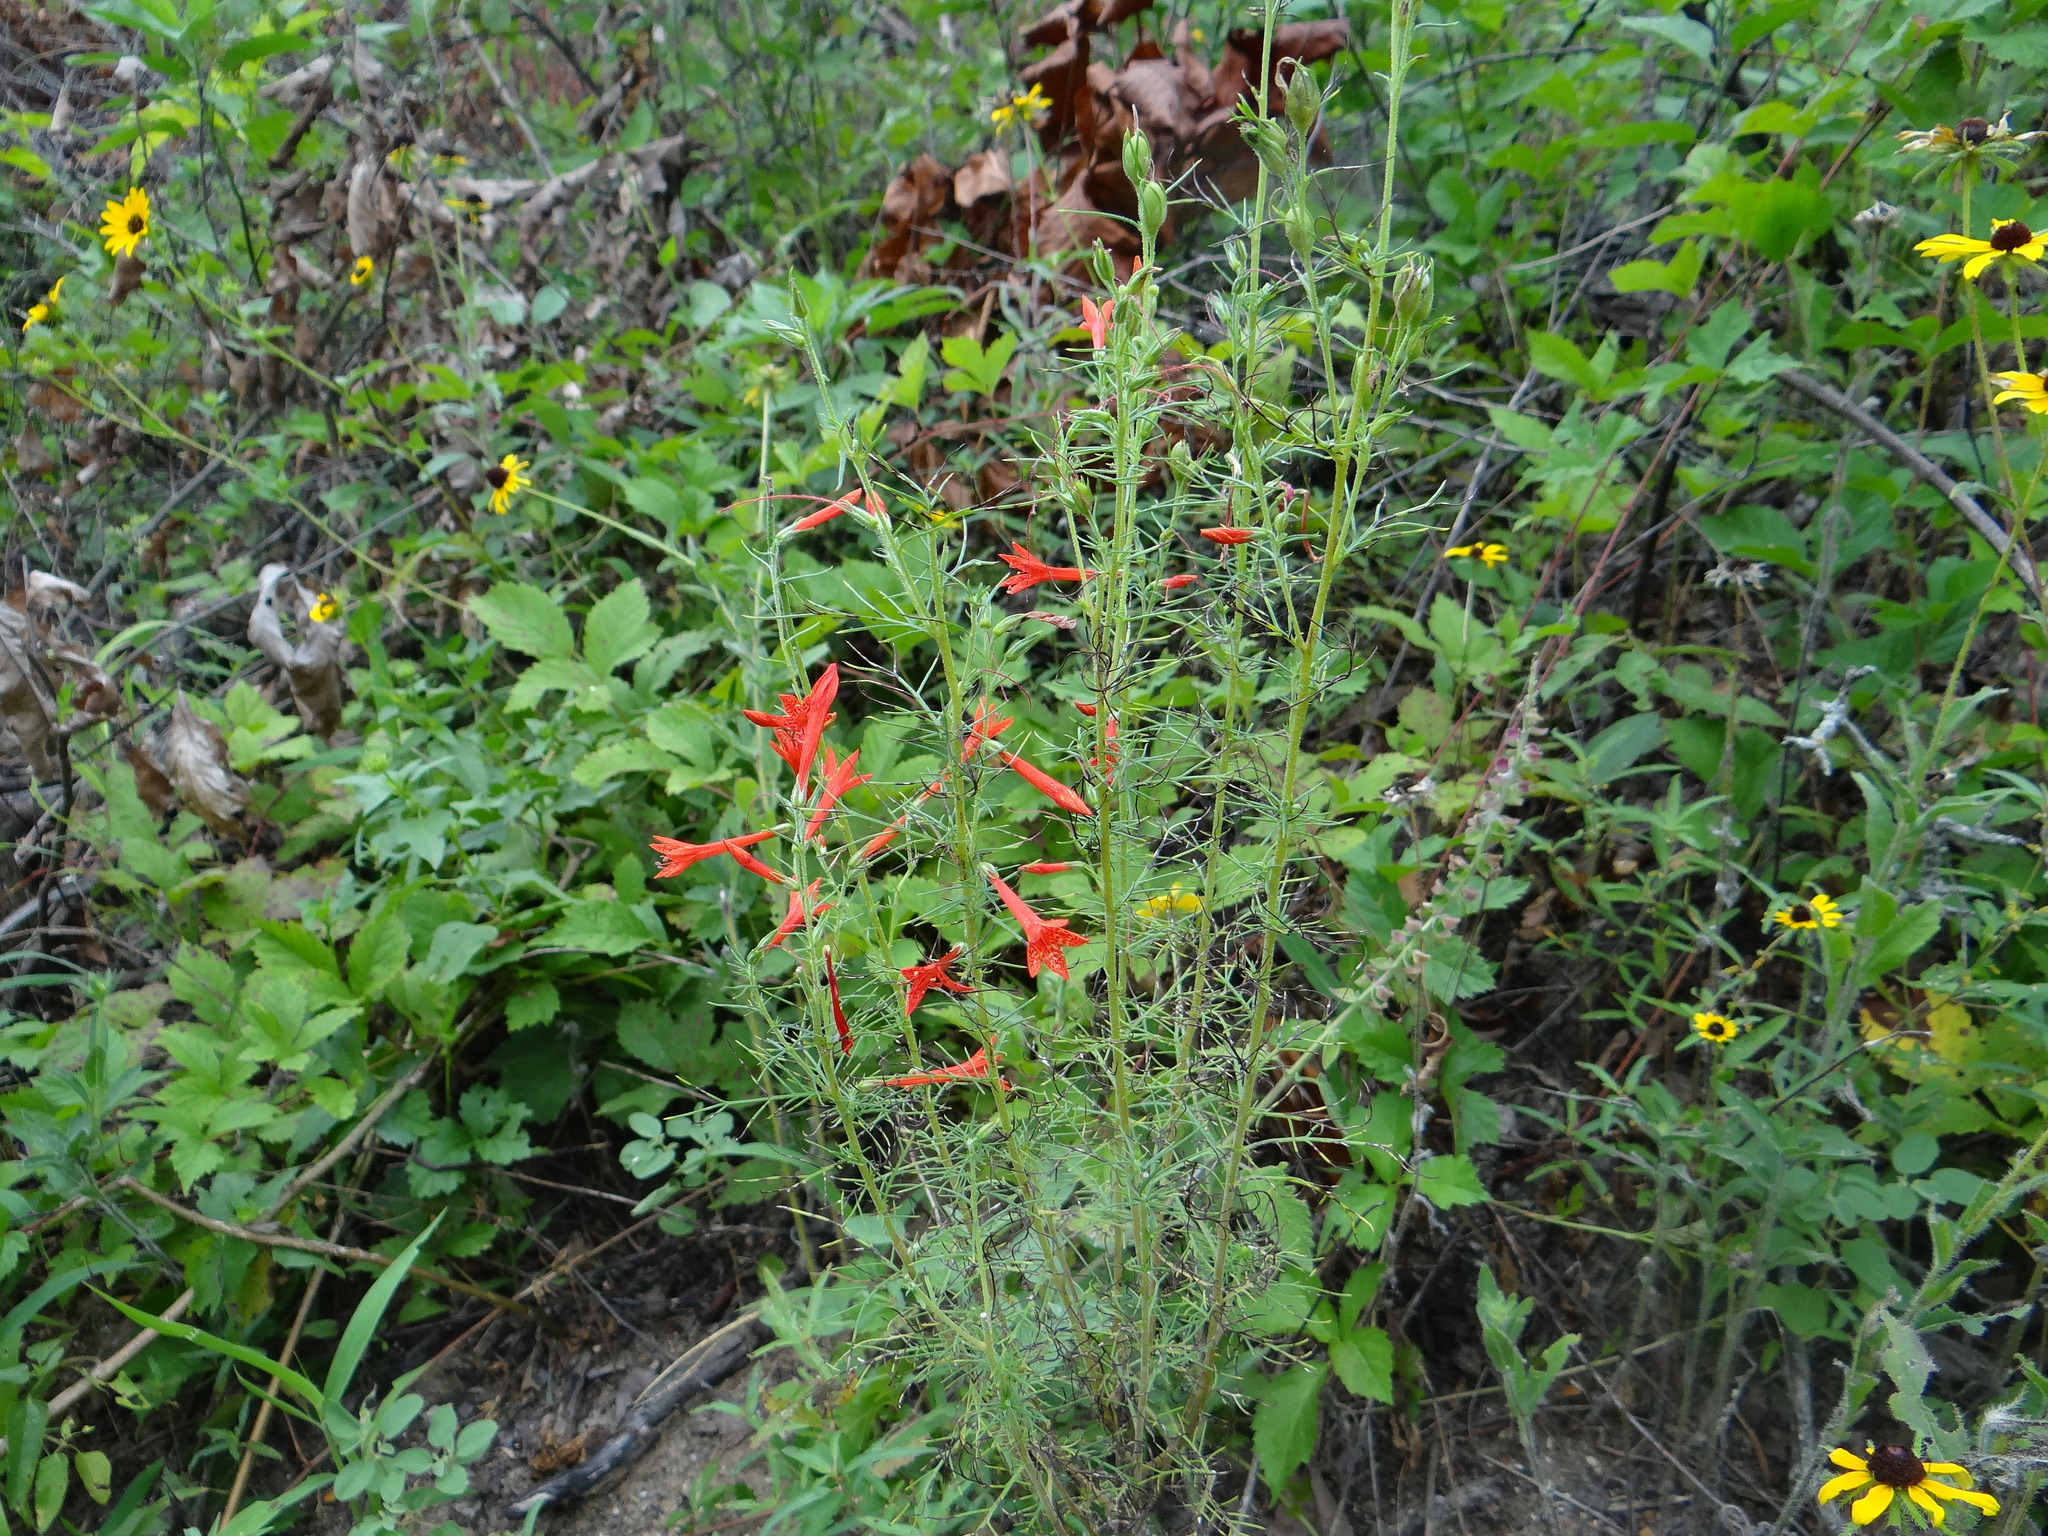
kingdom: Plantae
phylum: Tracheophyta
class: Magnoliopsida
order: Ericales
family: Polemoniaceae
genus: Ipomopsis
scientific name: Ipomopsis rubra
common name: Skyrocket
